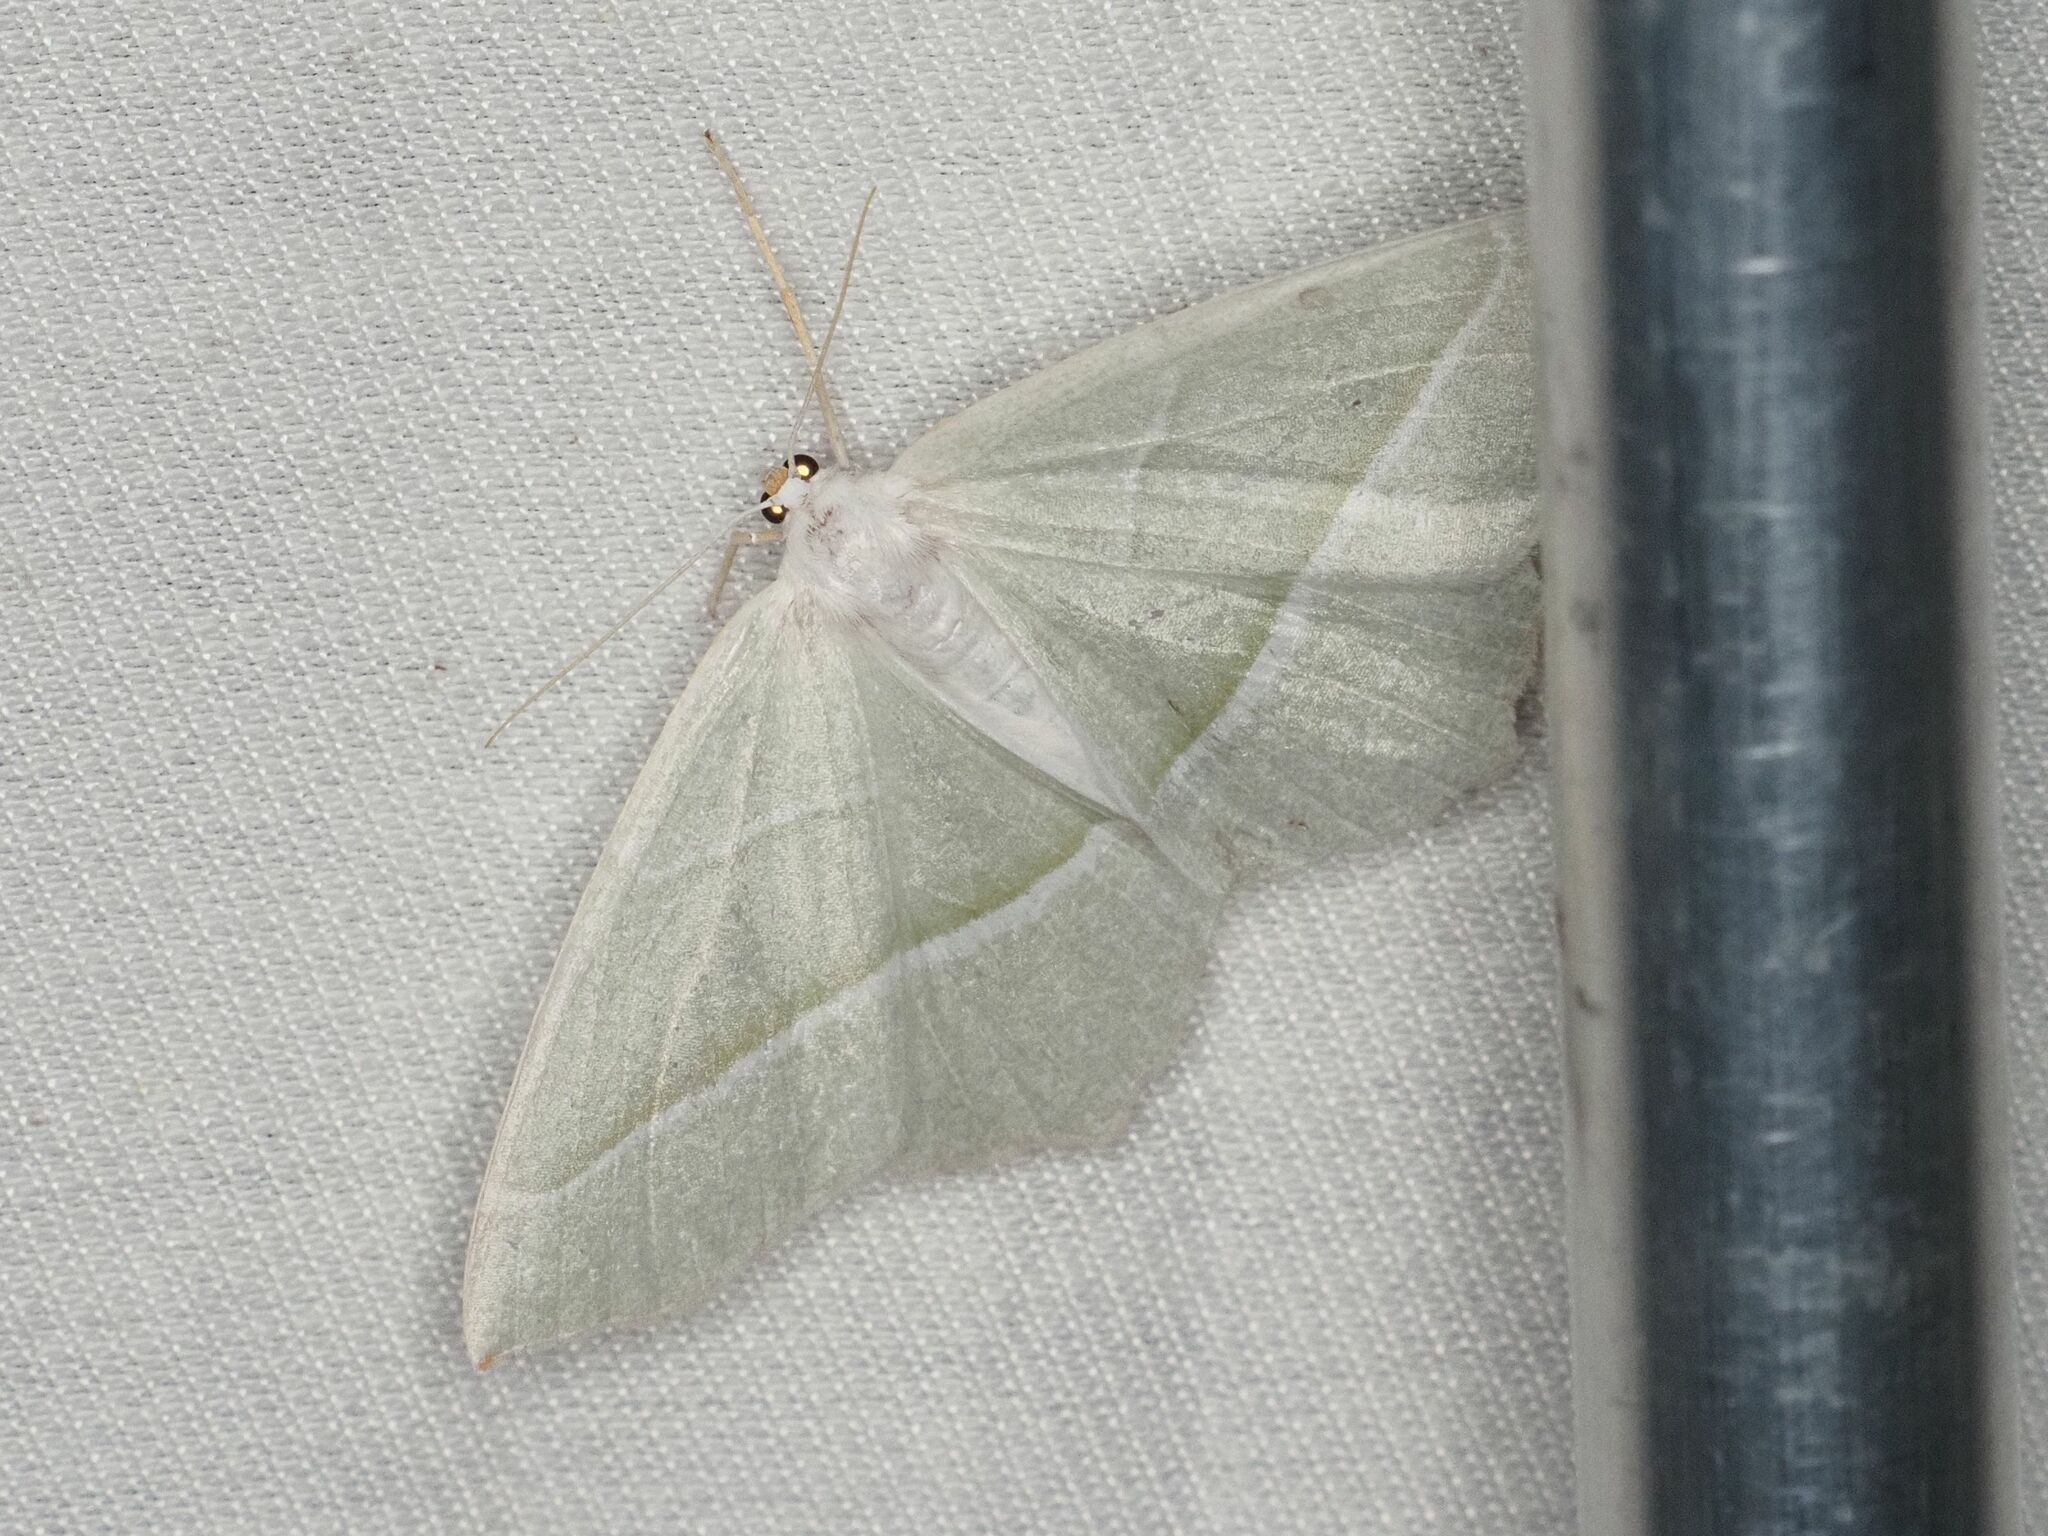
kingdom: Animalia
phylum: Arthropoda
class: Insecta
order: Lepidoptera
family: Geometridae
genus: Campaea
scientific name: Campaea margaritaria
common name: Light emerald
